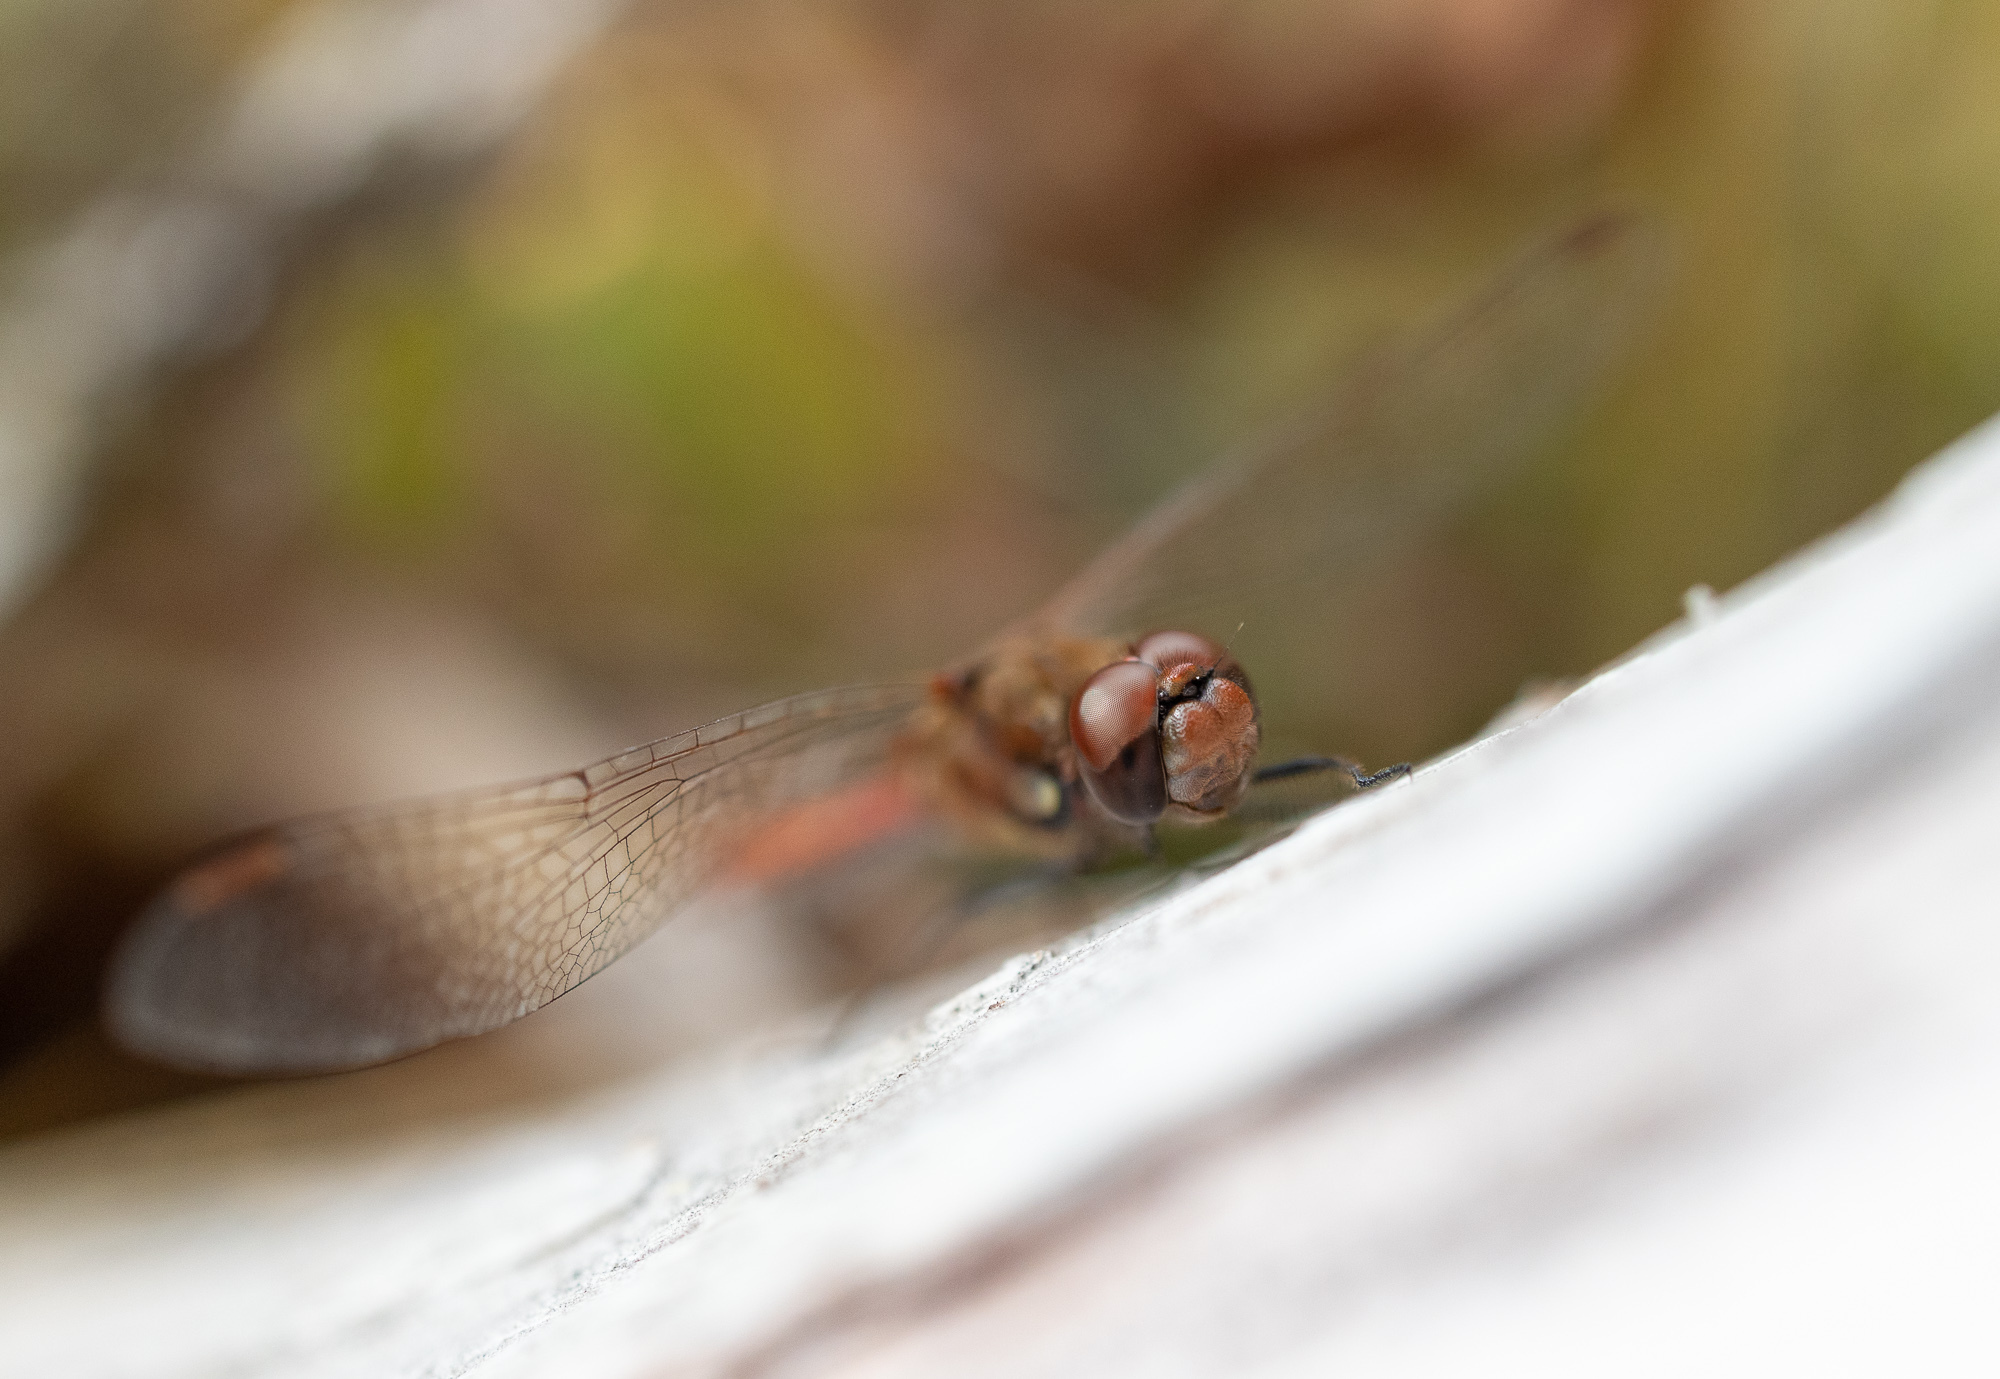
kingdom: Animalia
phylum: Arthropoda
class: Insecta
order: Odonata
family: Libellulidae
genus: Sympetrum
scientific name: Sympetrum striolatum
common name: Common darter
